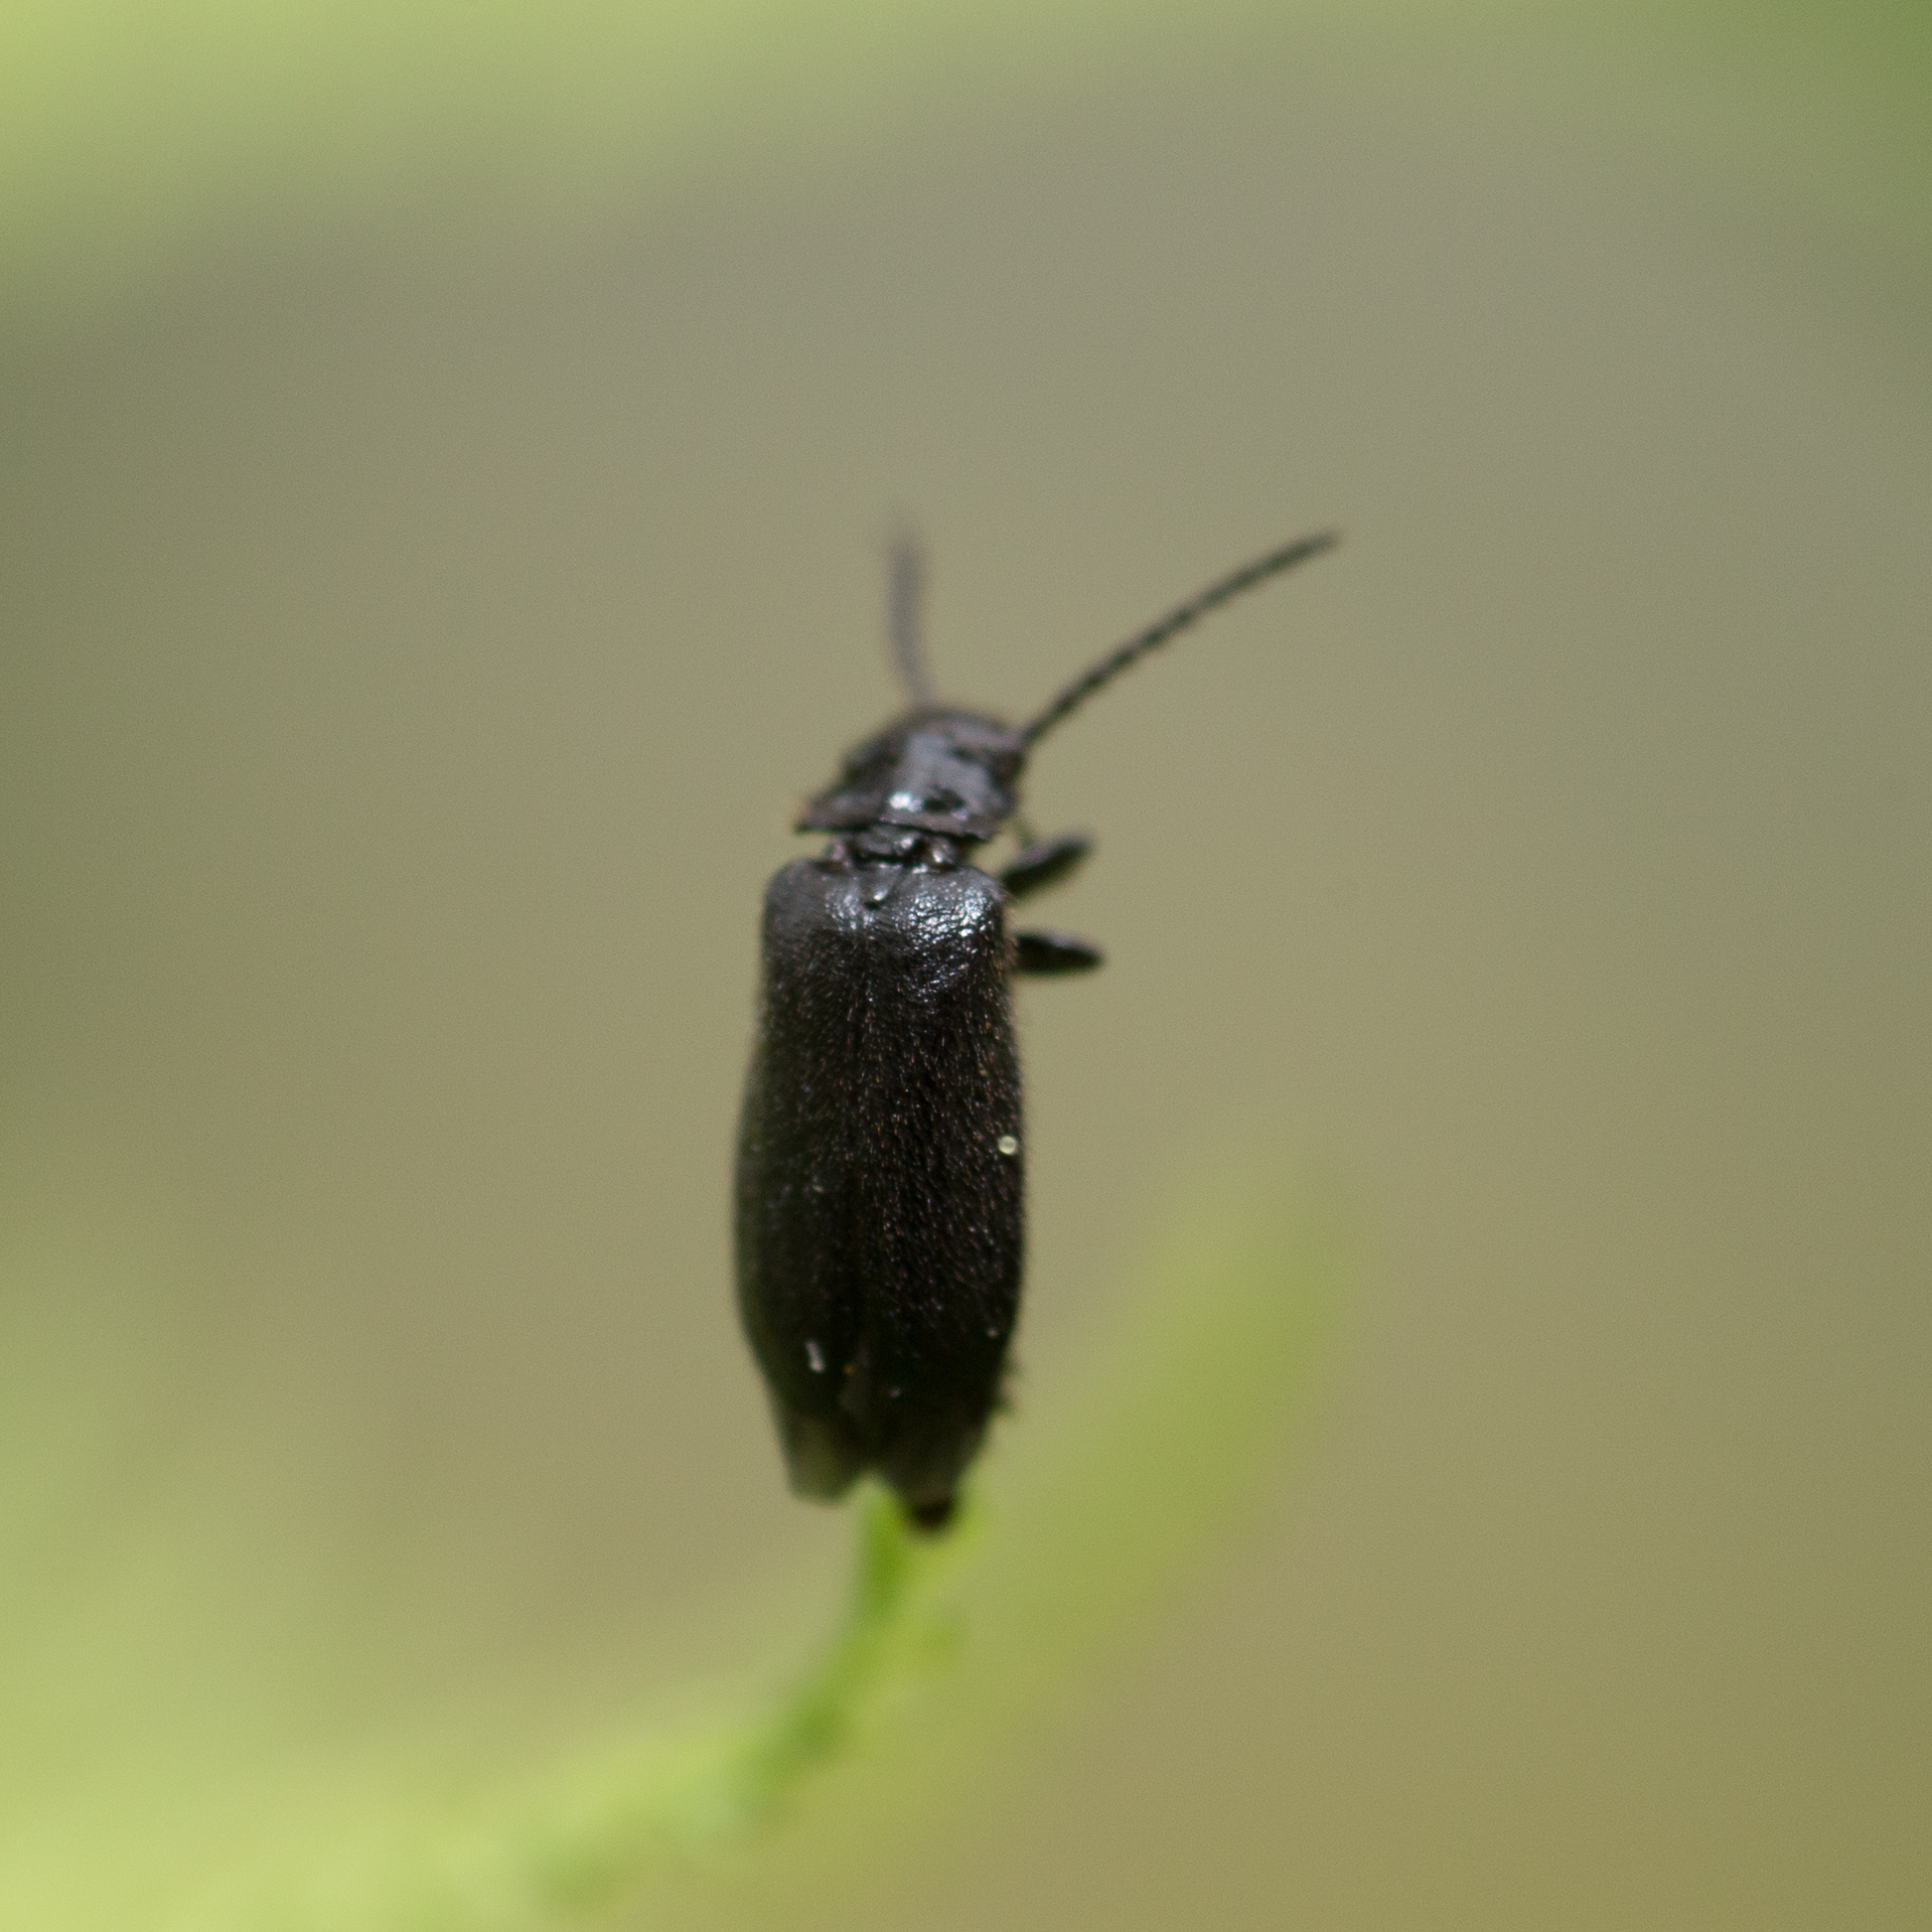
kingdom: Animalia
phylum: Arthropoda
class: Insecta
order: Coleoptera
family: Drilidae
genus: Drilus
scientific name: Drilus concolor
